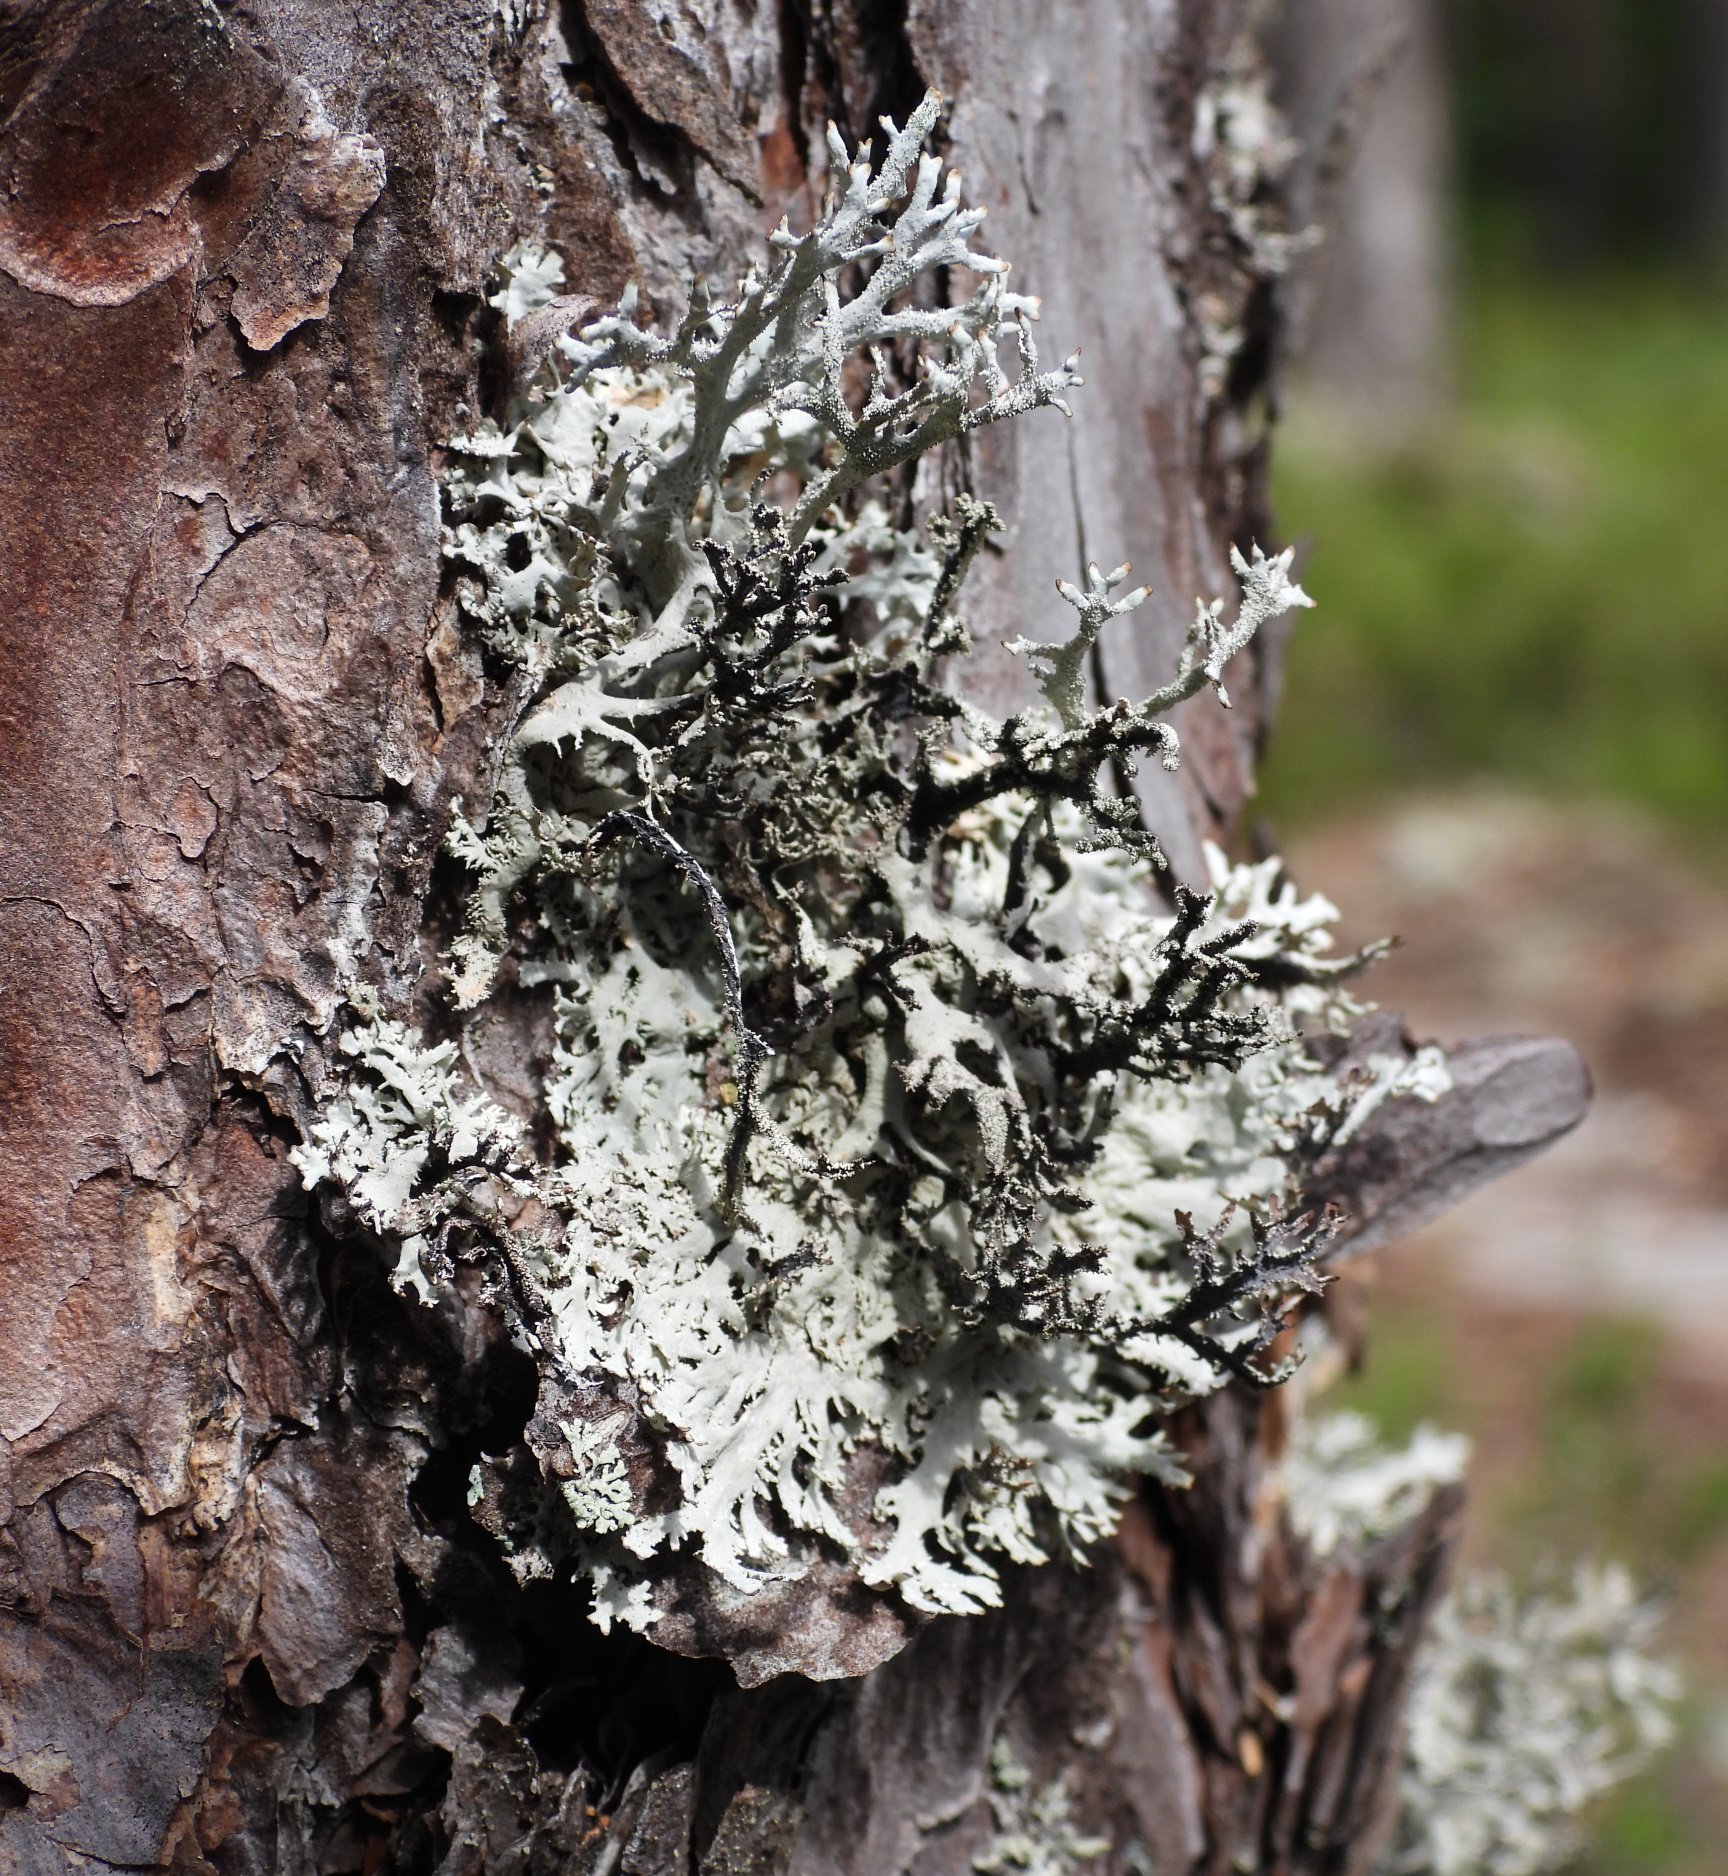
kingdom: Fungi
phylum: Ascomycota
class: Lecanoromycetes
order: Lecanorales
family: Parmeliaceae
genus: Pseudevernia
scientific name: Pseudevernia furfuracea
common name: Tree moss
